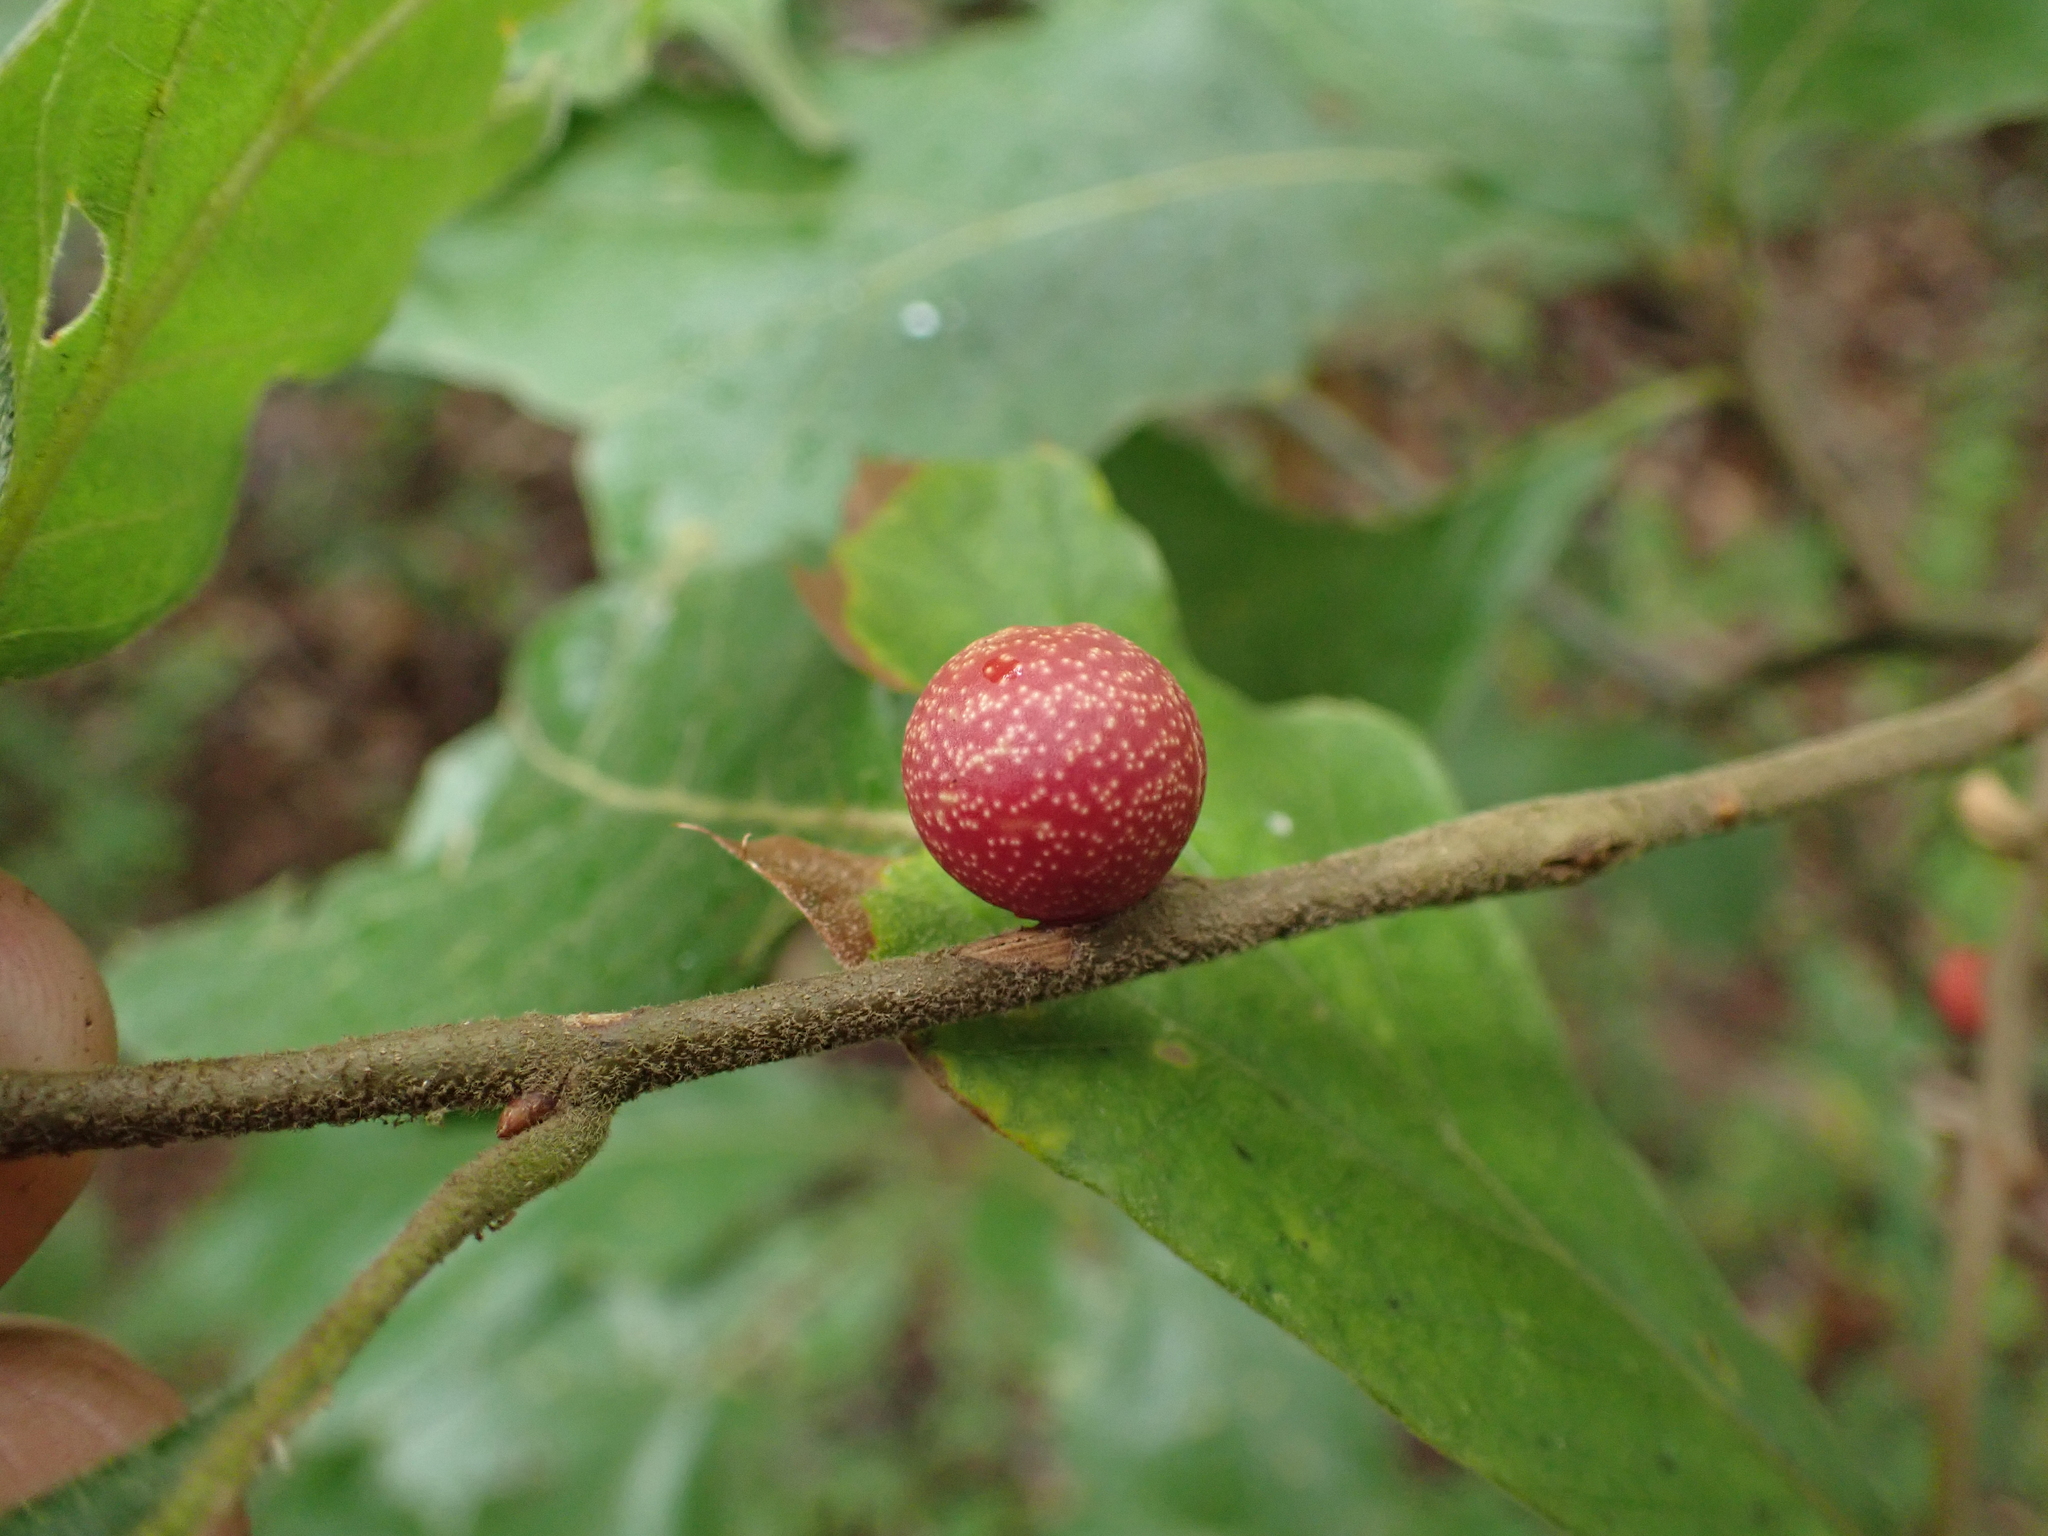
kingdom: Animalia
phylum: Arthropoda
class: Insecta
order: Hymenoptera
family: Cynipidae
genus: Kokkocynips
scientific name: Kokkocynips imbricariae
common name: Banded bullet gall wasp
